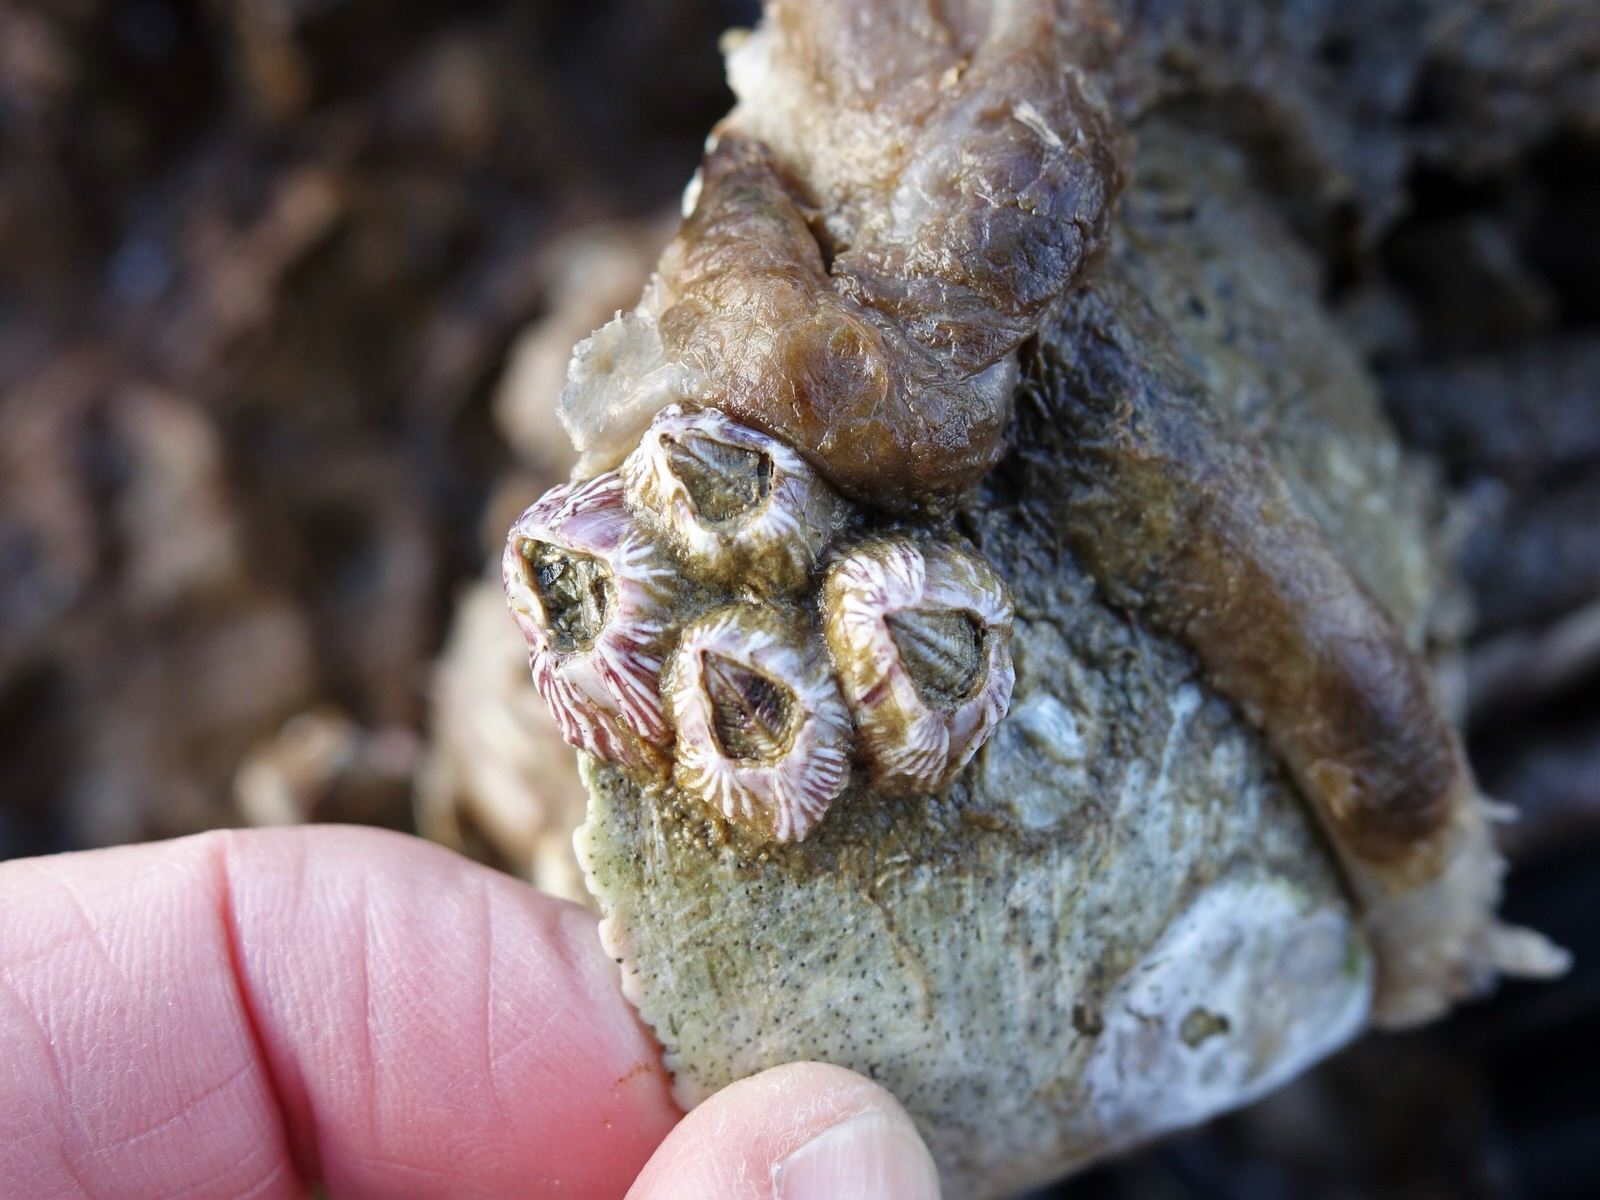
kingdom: Animalia
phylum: Arthropoda
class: Maxillopoda
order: Sessilia
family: Balanidae
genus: Balanus
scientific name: Balanus trigonus
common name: Triangle barnacle
